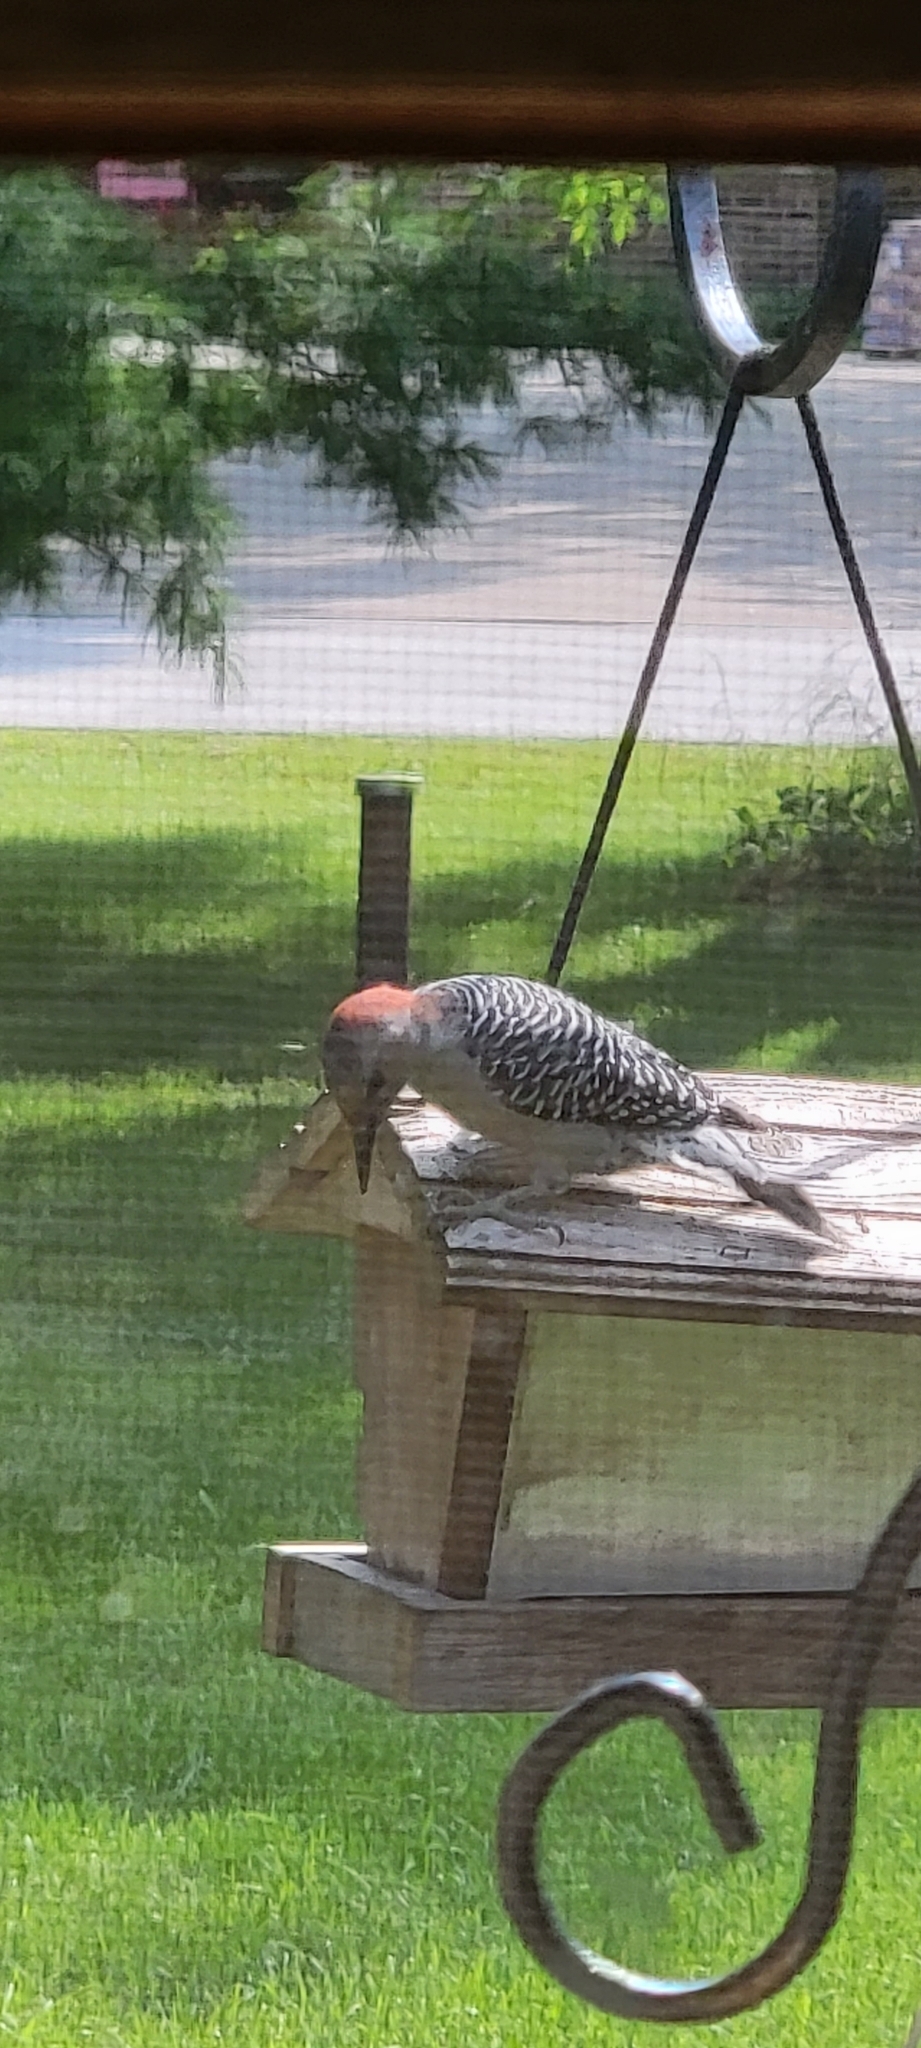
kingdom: Animalia
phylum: Chordata
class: Aves
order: Piciformes
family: Picidae
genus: Melanerpes
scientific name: Melanerpes carolinus
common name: Red-bellied woodpecker
